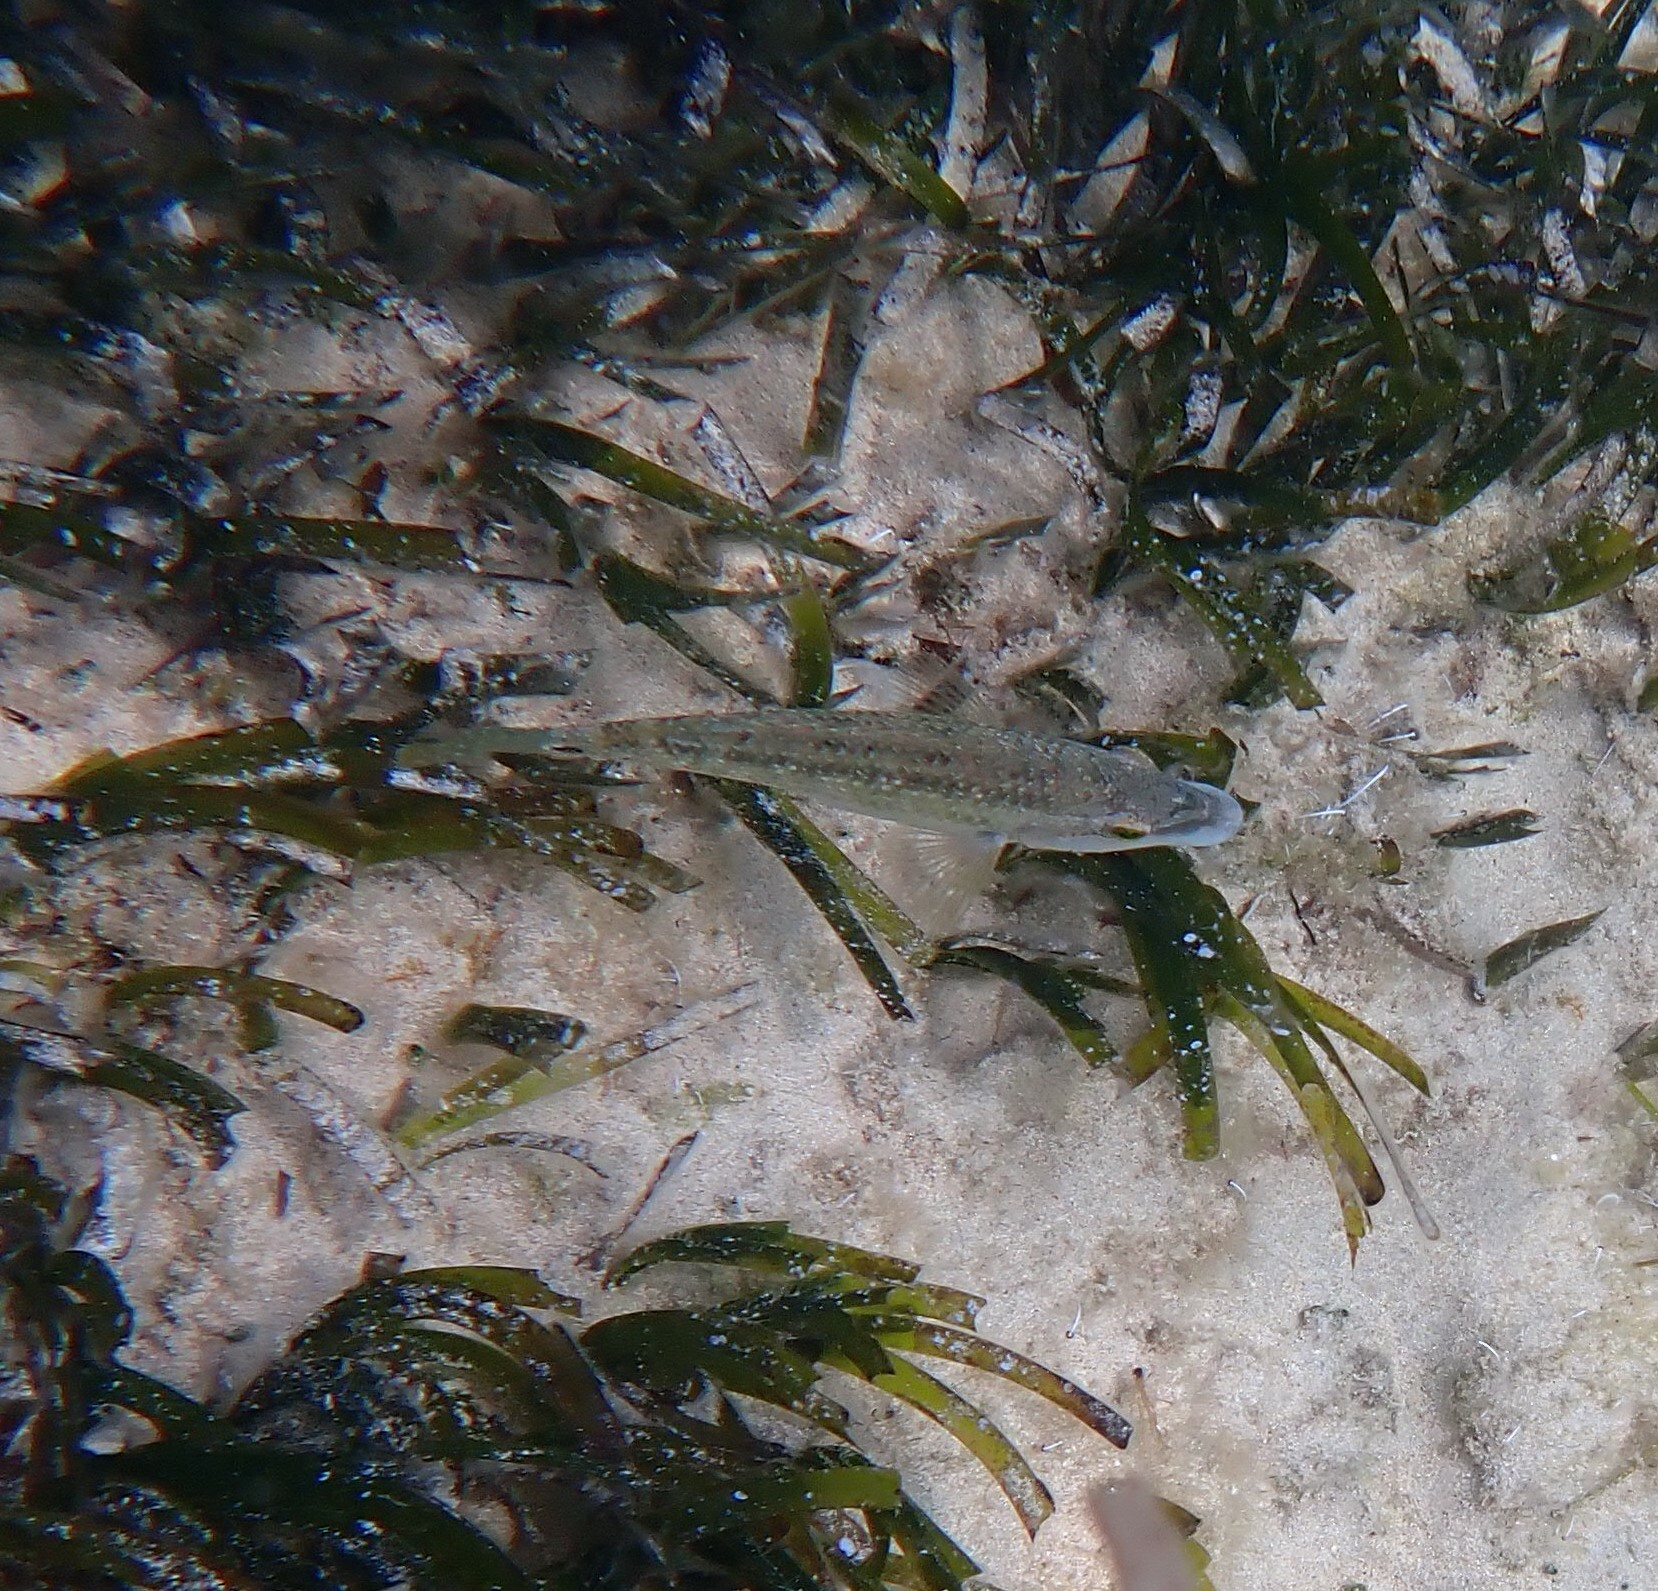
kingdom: Animalia
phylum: Chordata
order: Perciformes
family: Labridae
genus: Symphodus
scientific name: Symphodus tinca
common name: Peacock wrasse
